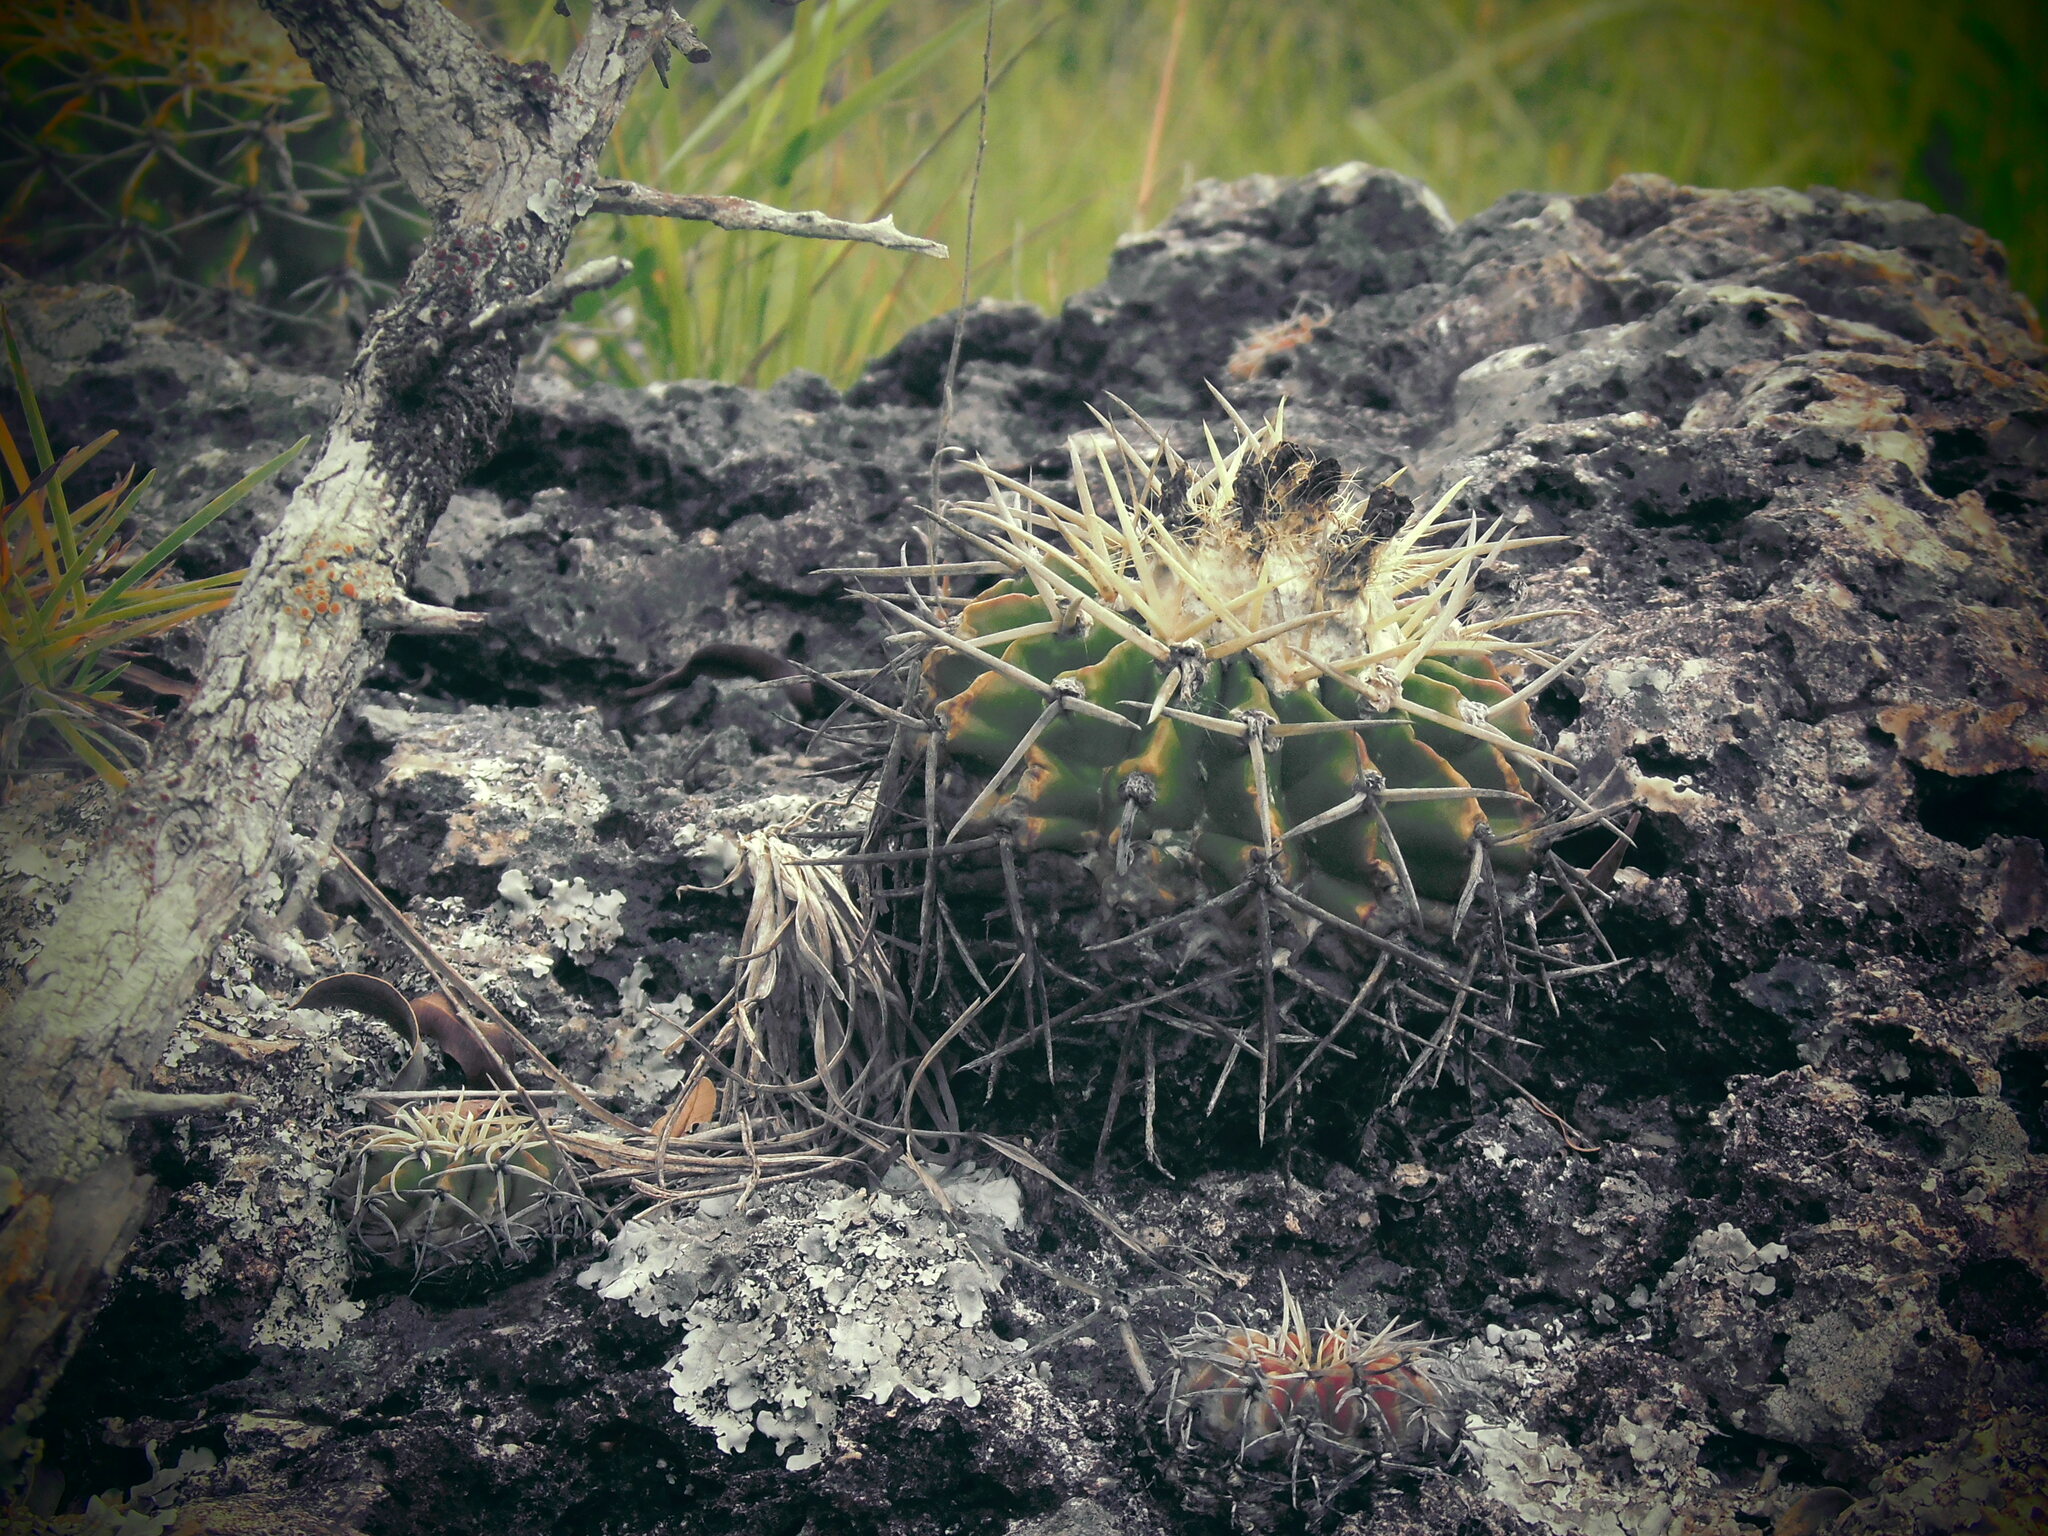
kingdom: Plantae
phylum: Tracheophyta
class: Magnoliopsida
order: Caryophyllales
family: Cactaceae
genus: Parodia
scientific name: Parodia erinacea
